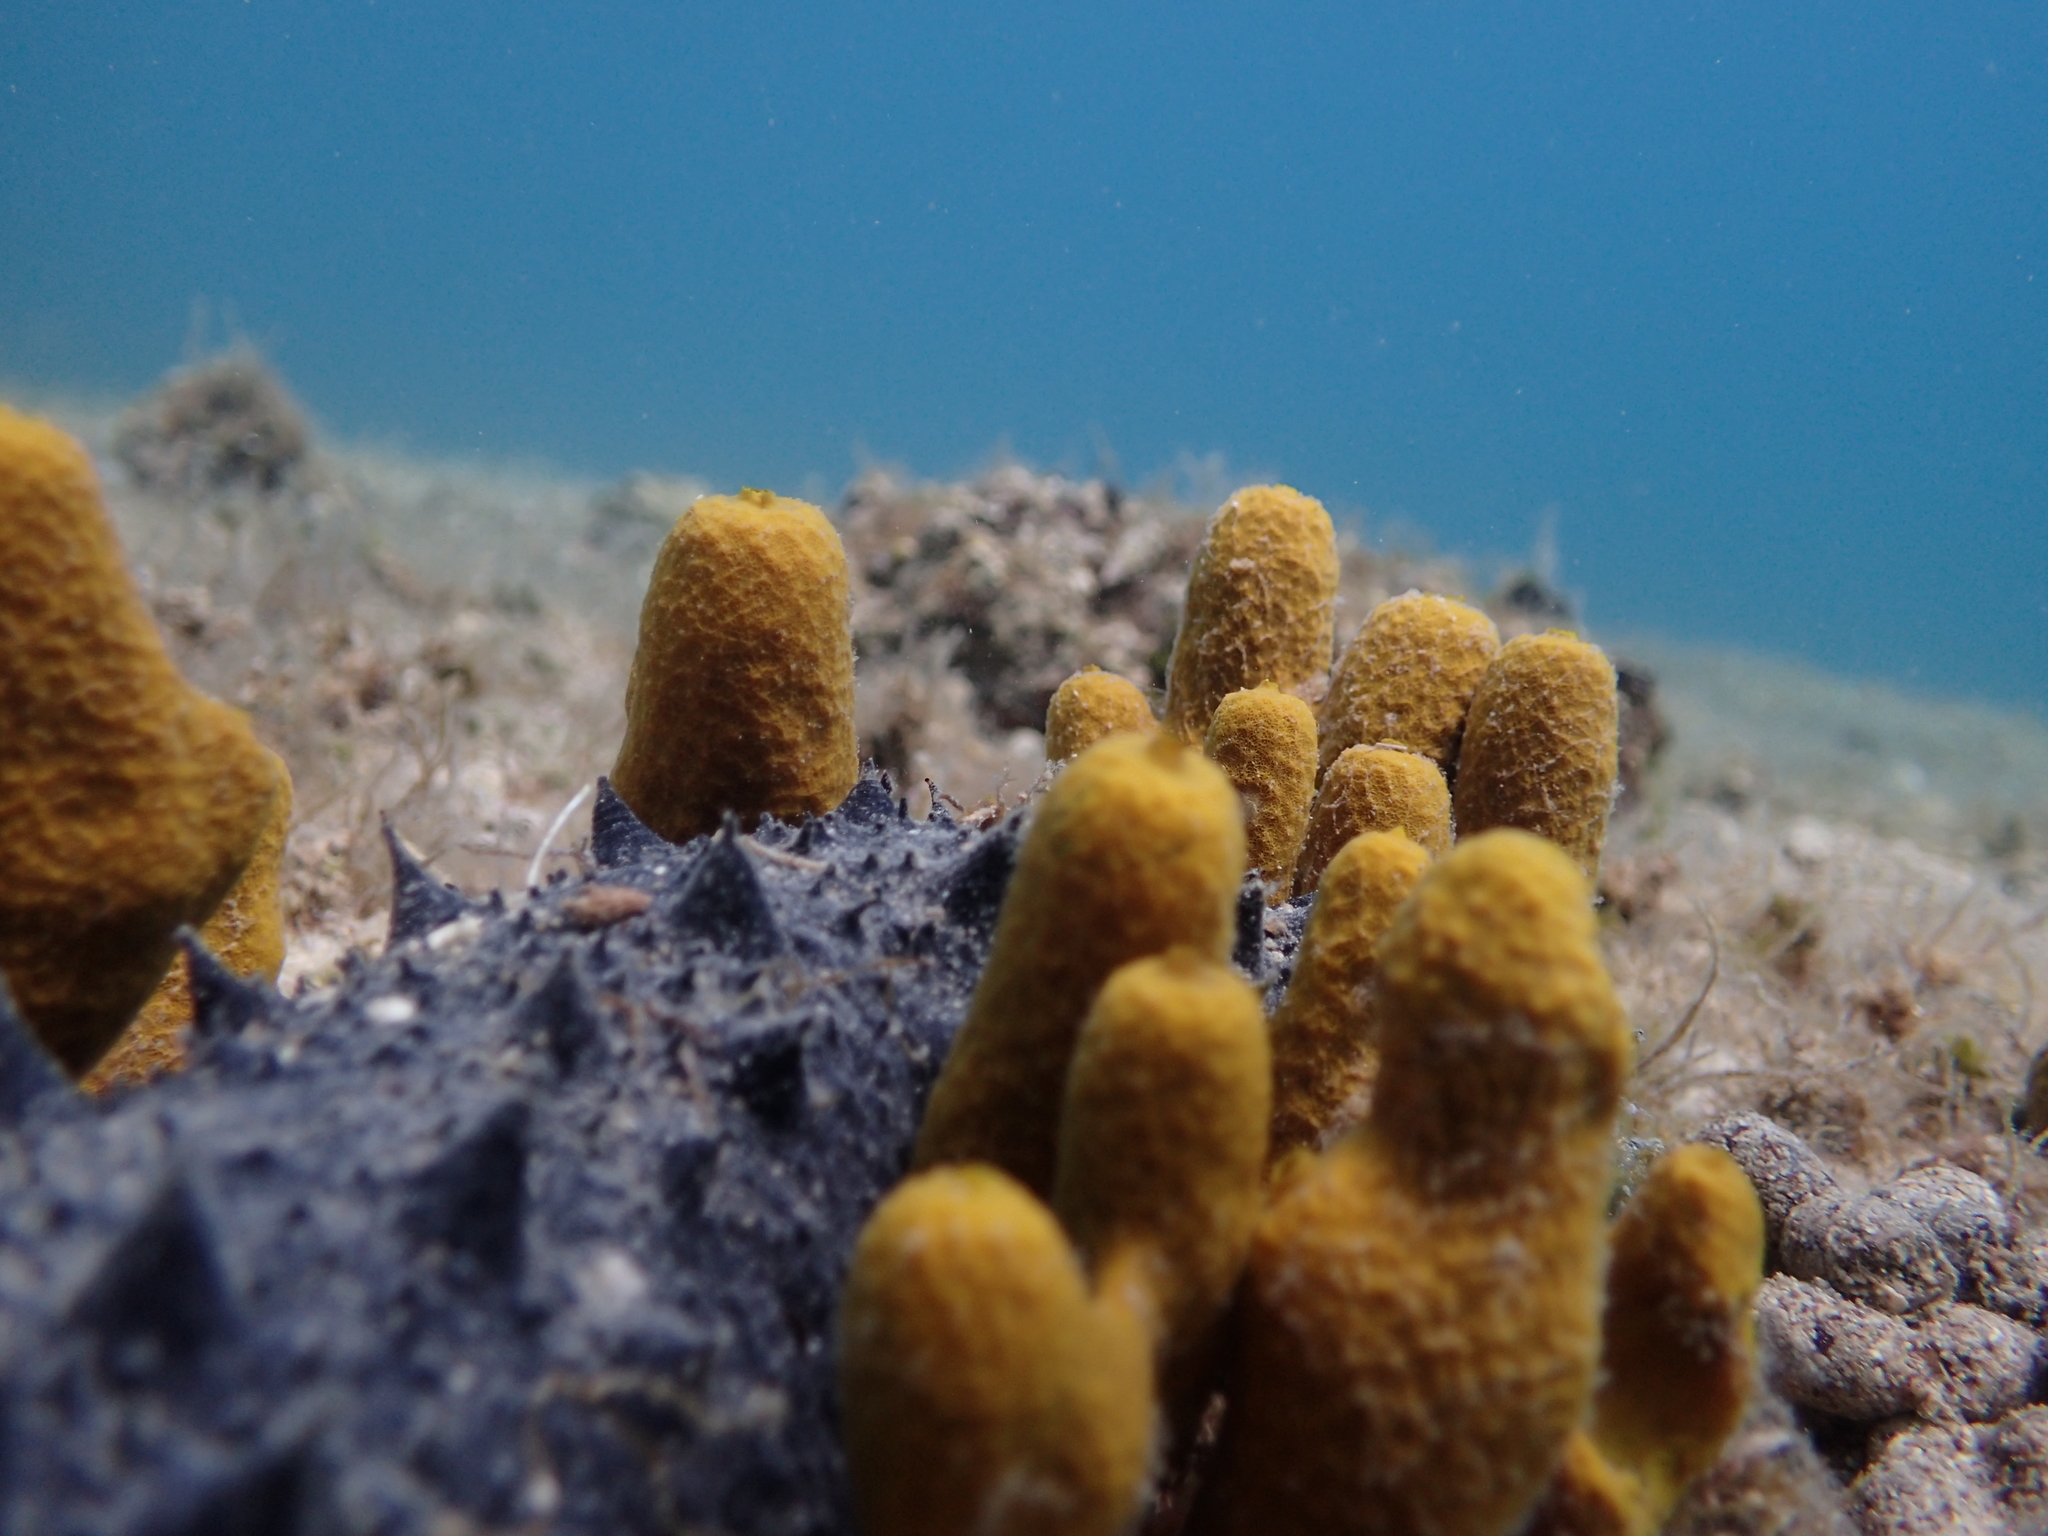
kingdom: Animalia
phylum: Porifera
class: Demospongiae
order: Verongiida
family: Aplysinidae
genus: Aplysina
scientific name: Aplysina aerophoba
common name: Aureate sponge
